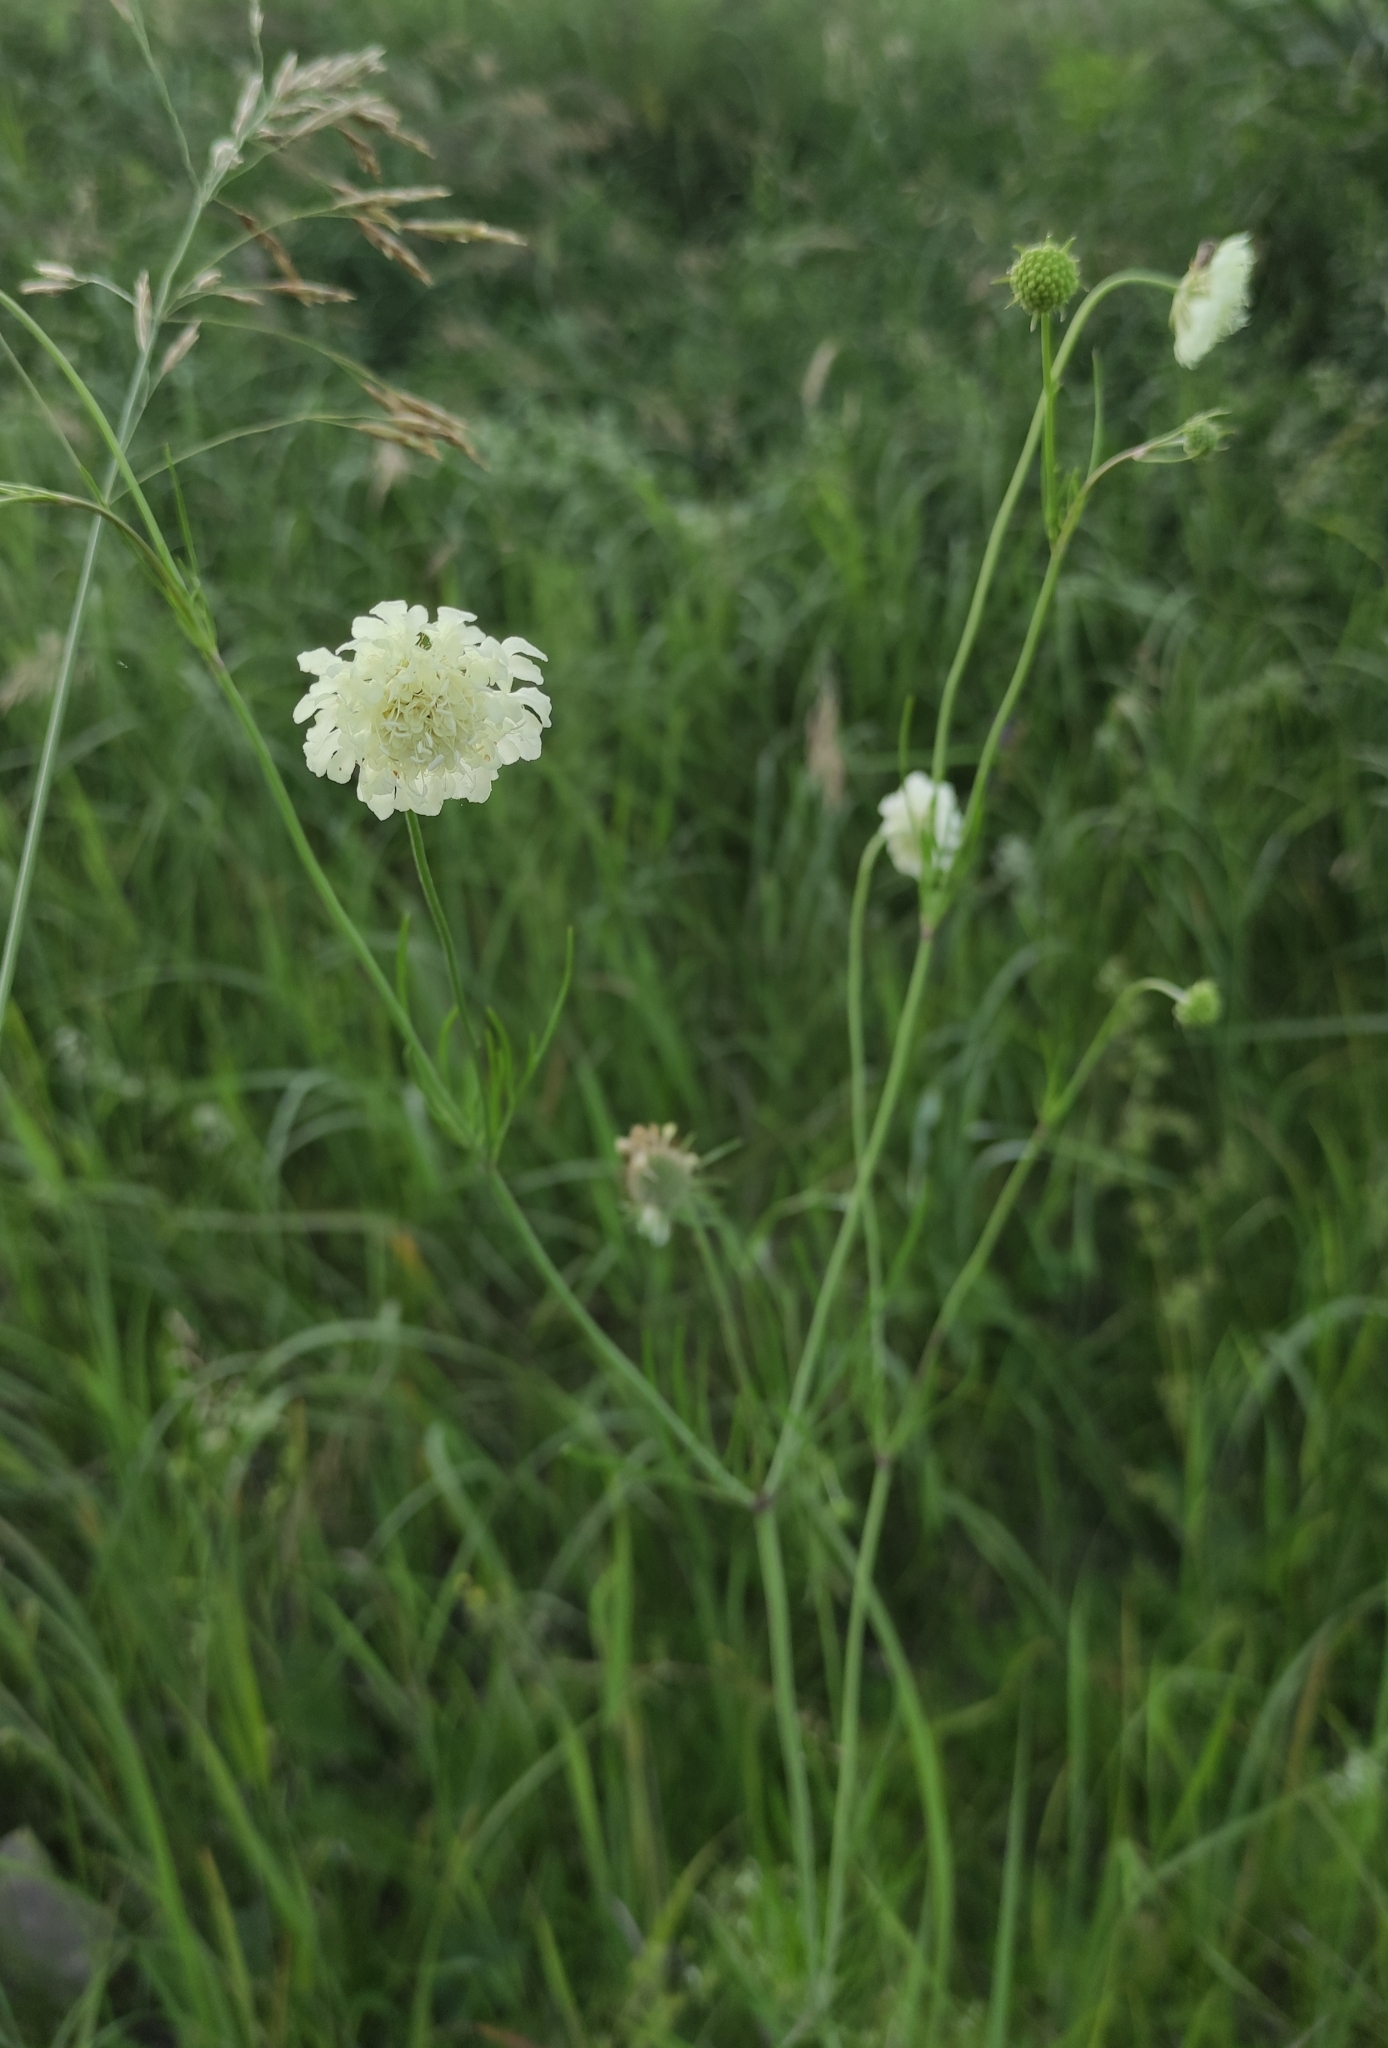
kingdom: Plantae
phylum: Tracheophyta
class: Magnoliopsida
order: Dipsacales
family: Caprifoliaceae
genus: Scabiosa
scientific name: Scabiosa ochroleuca
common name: Cream pincushions
